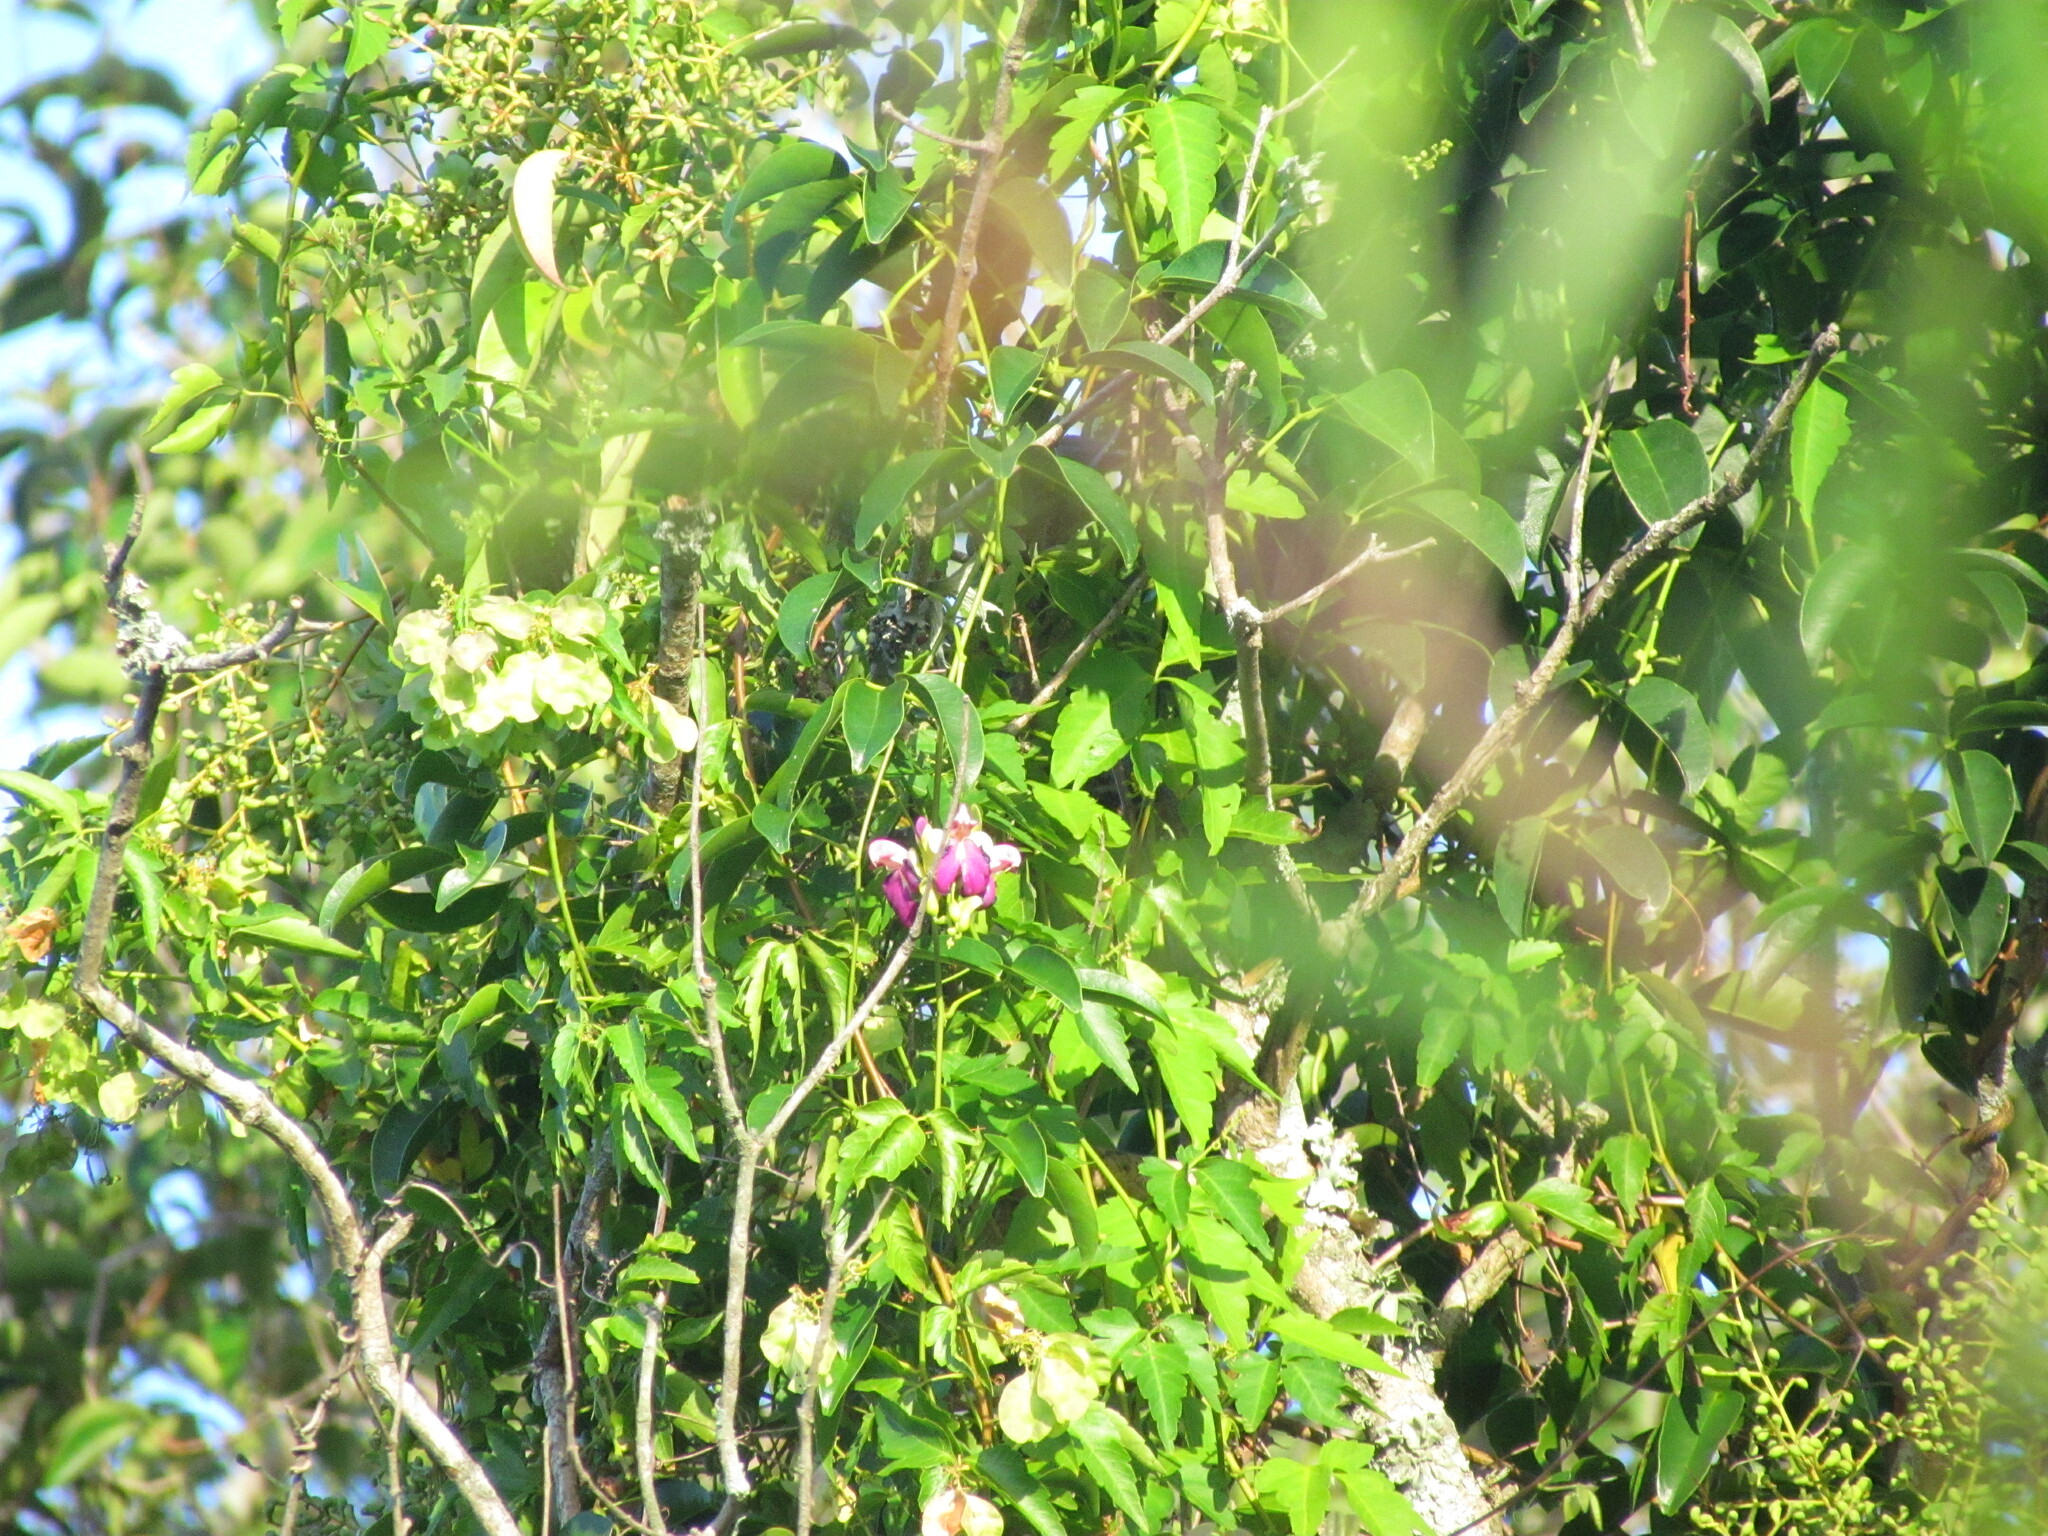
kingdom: Plantae
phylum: Tracheophyta
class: Magnoliopsida
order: Fabales
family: Fabaceae
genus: Canavalia
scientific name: Canavalia bonariensis
